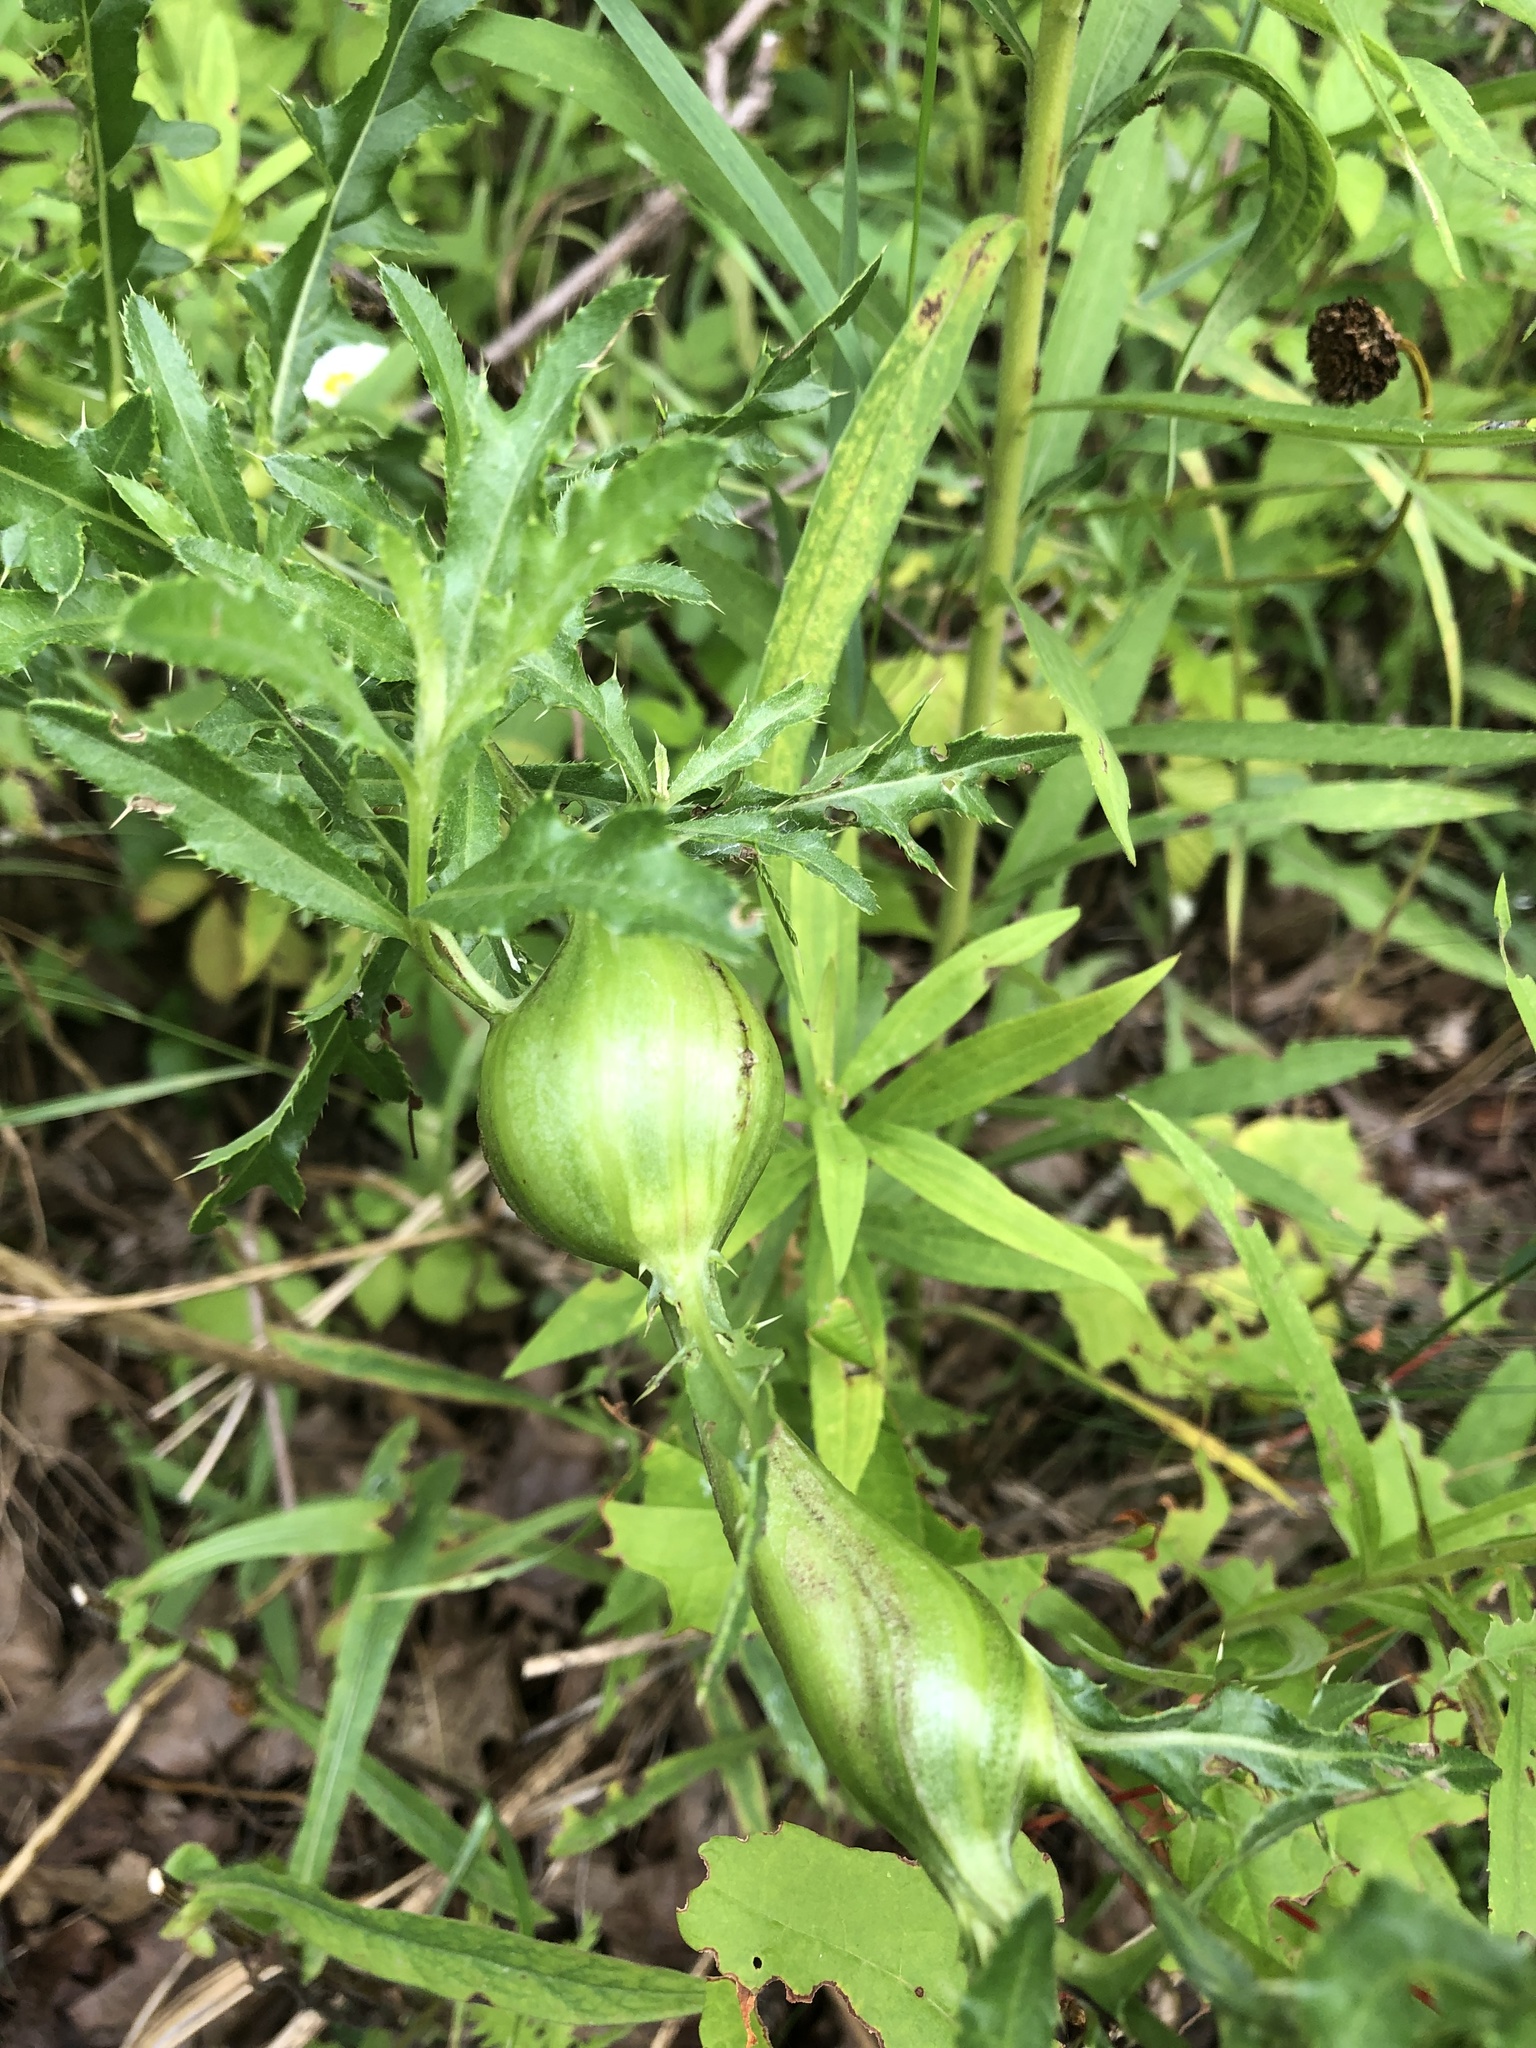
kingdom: Animalia
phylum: Arthropoda
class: Insecta
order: Diptera
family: Tephritidae
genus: Urophora
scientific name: Urophora cardui
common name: Fruit fly
